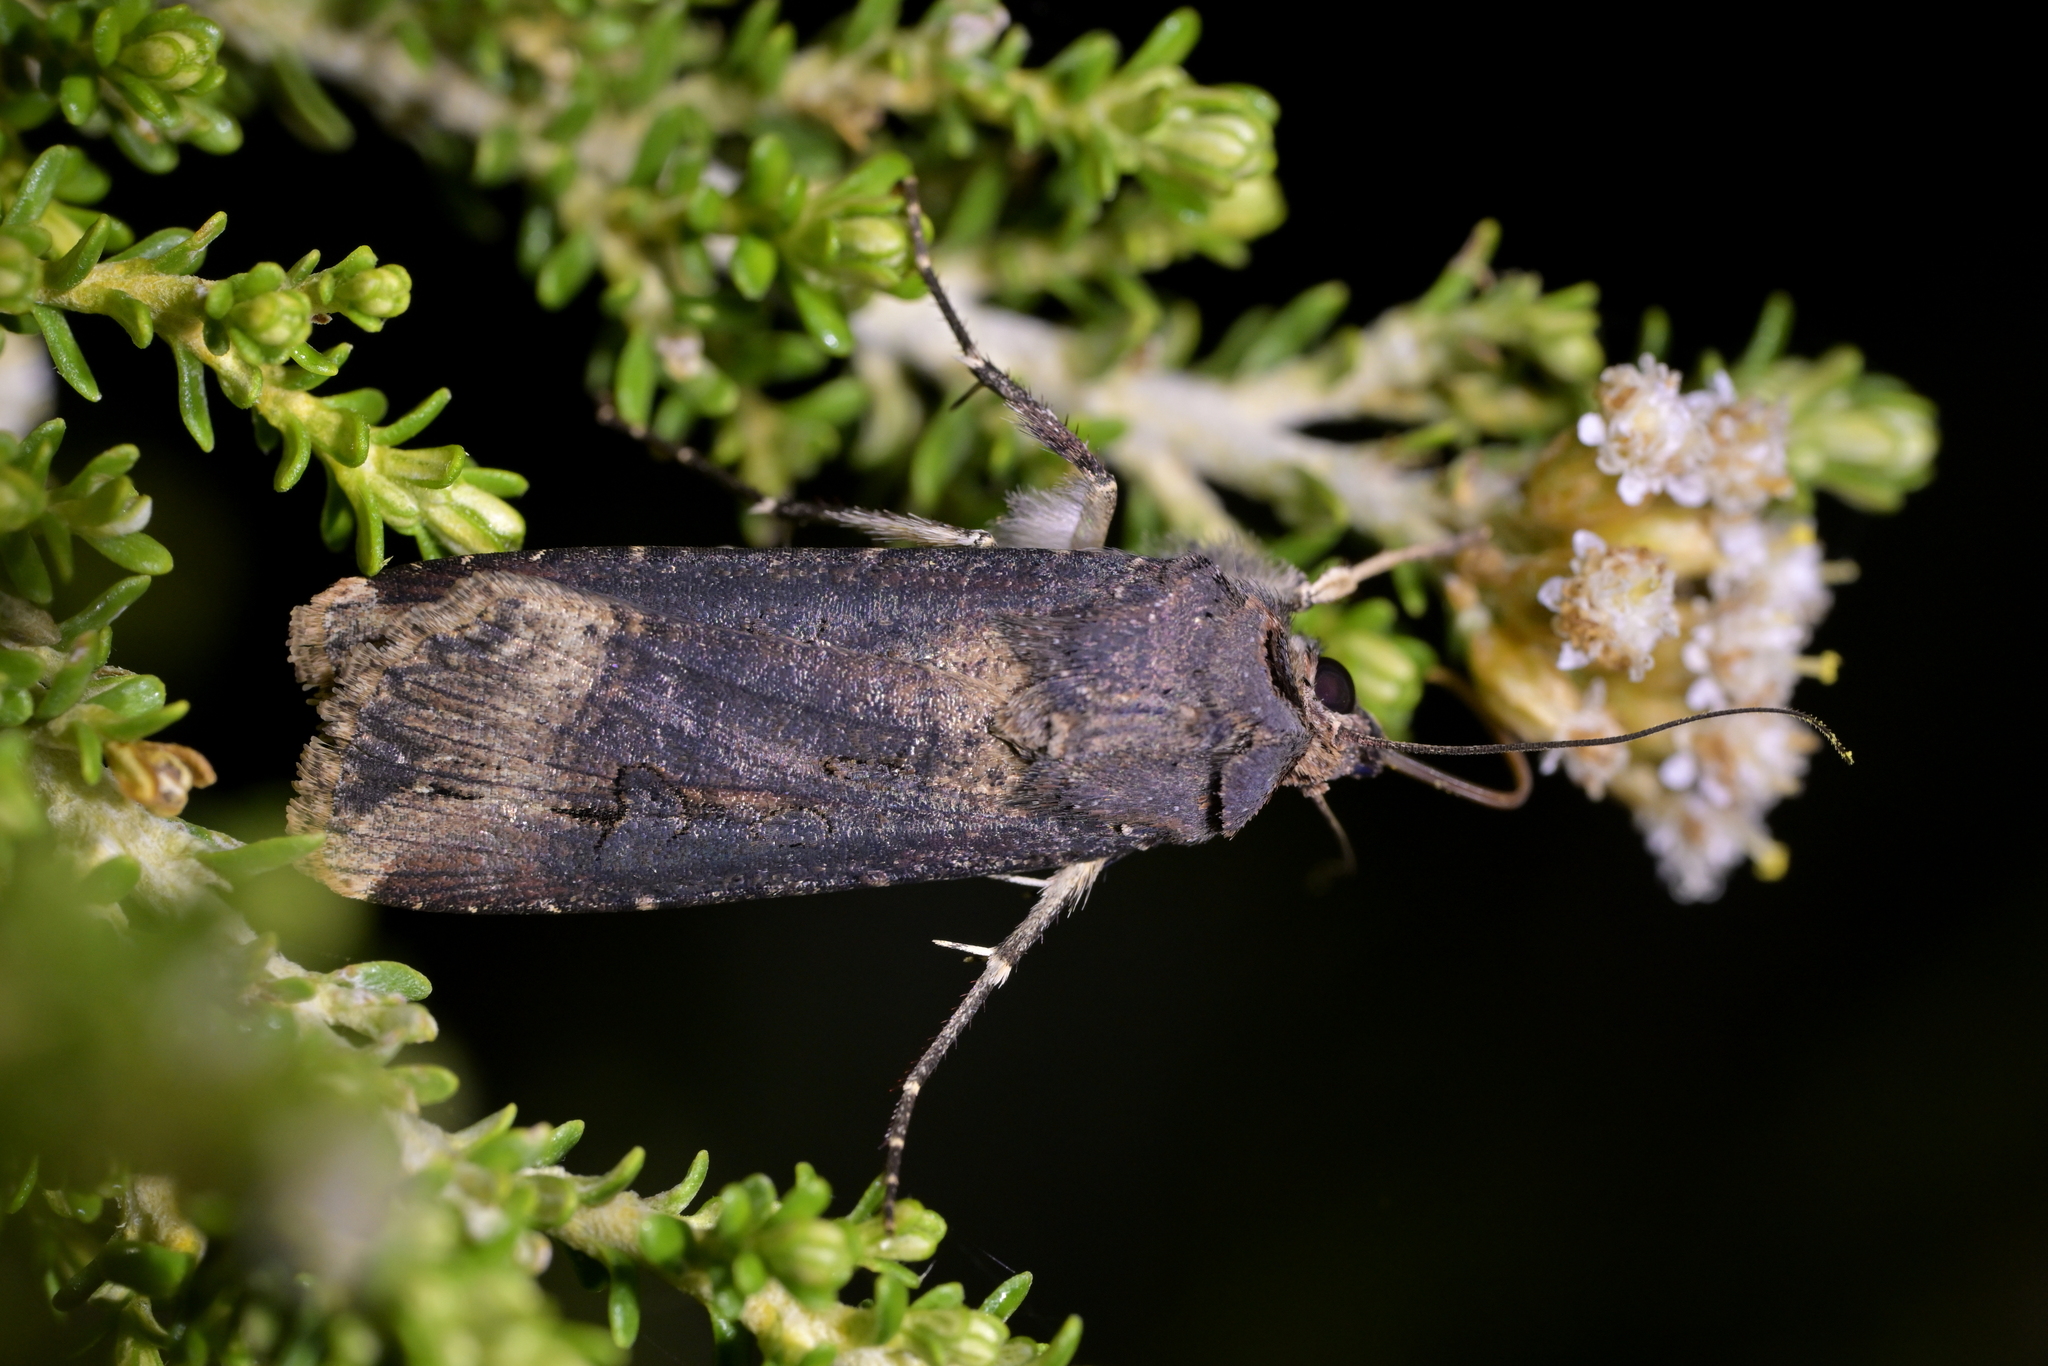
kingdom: Animalia
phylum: Arthropoda
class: Insecta
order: Lepidoptera
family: Noctuidae
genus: Agrotis
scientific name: Agrotis ipsilon
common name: Dark sword-grass
